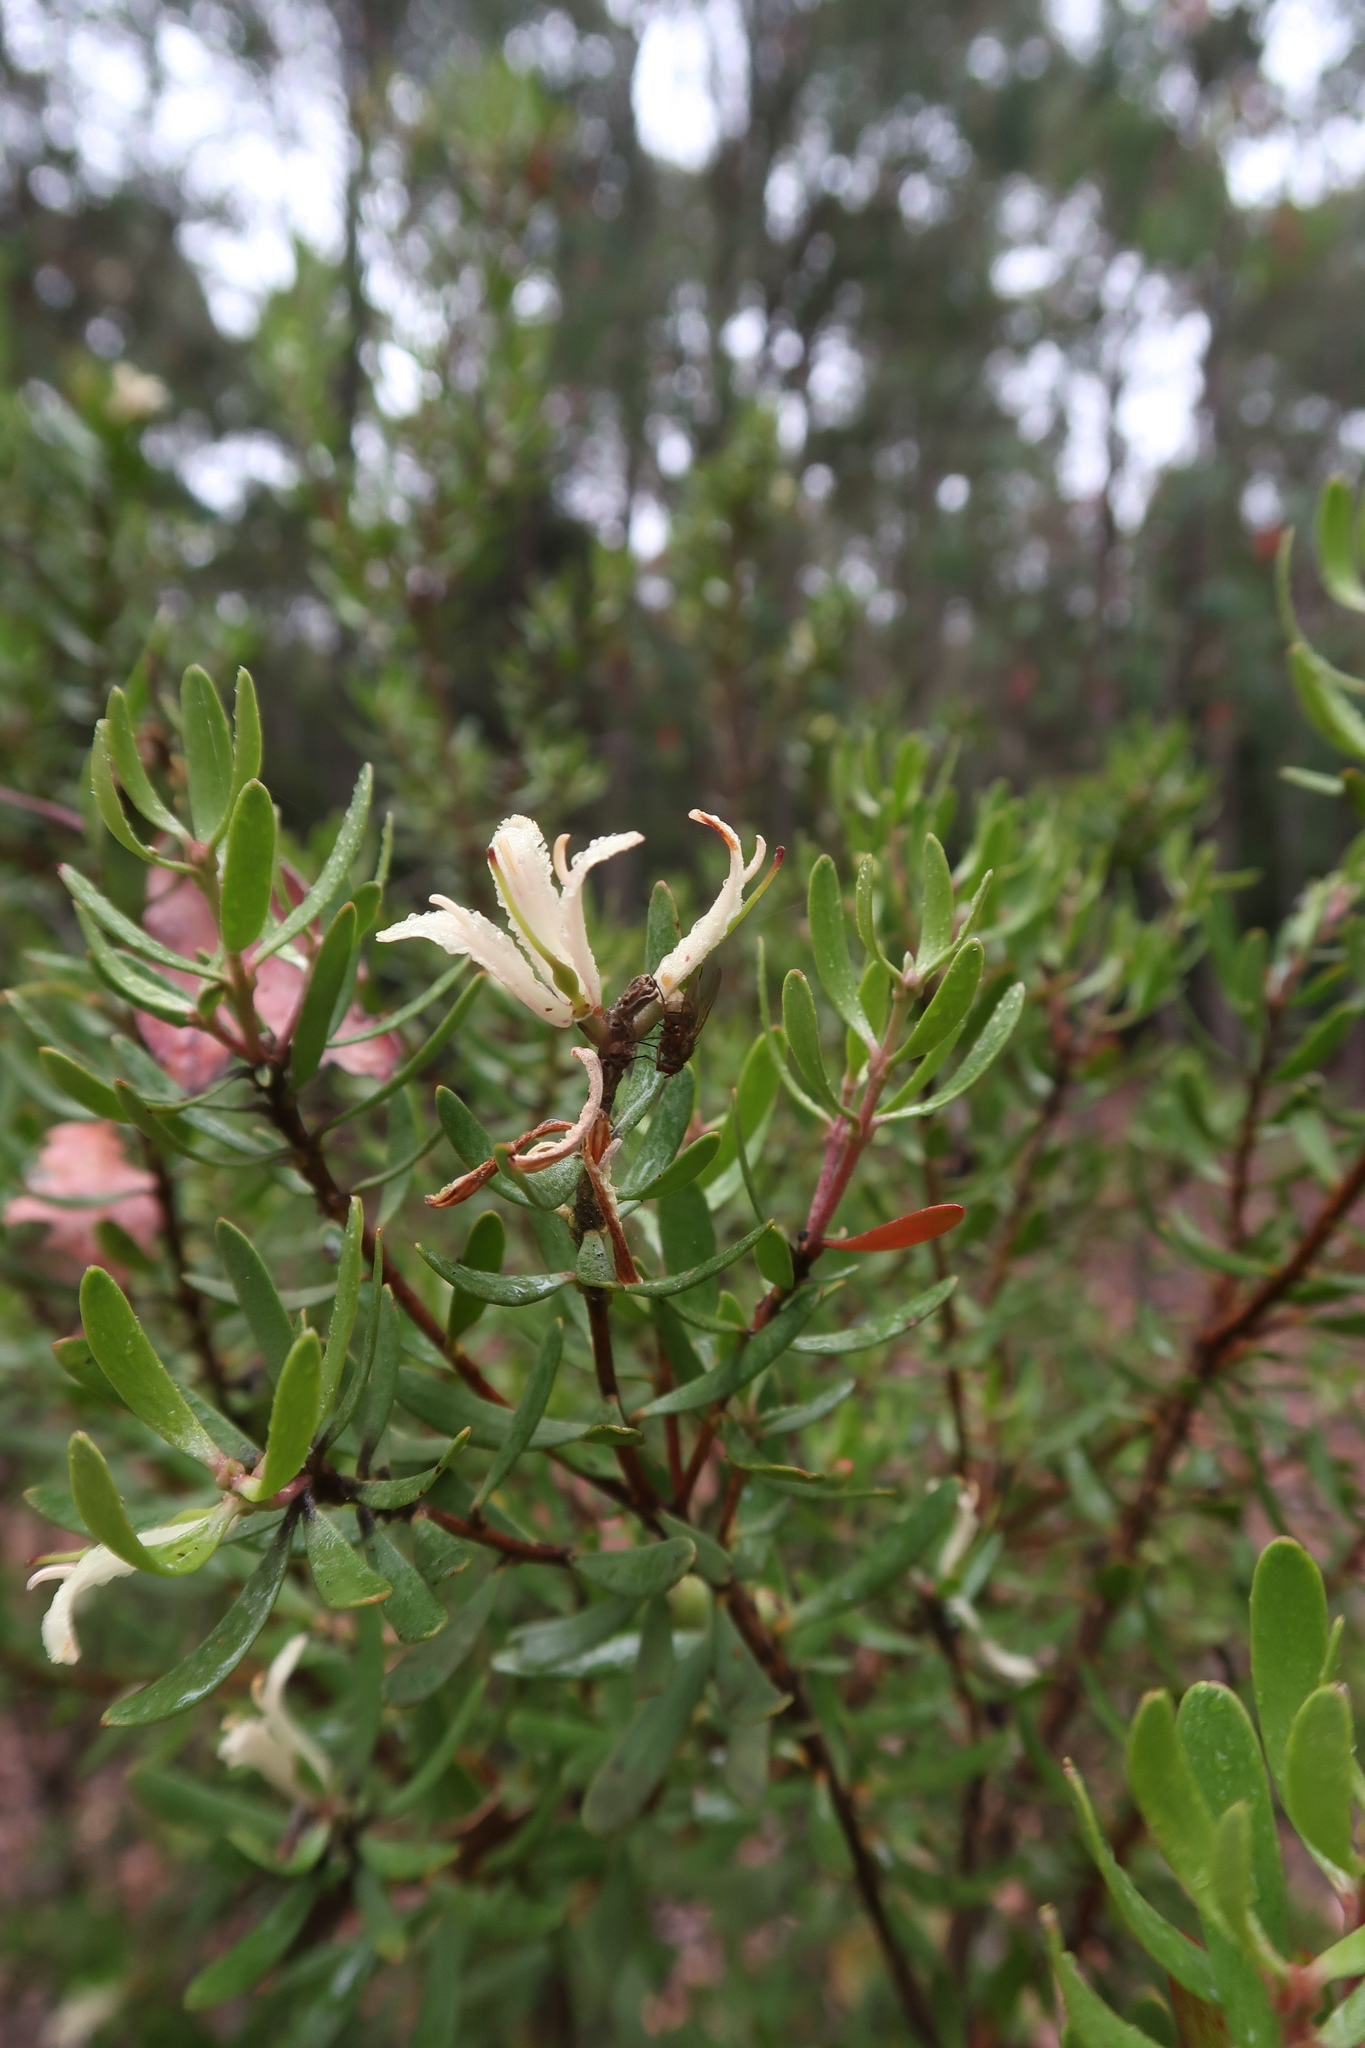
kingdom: Plantae
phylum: Tracheophyta
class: Magnoliopsida
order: Proteales
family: Proteaceae
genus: Persoonia
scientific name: Persoonia muelleri
